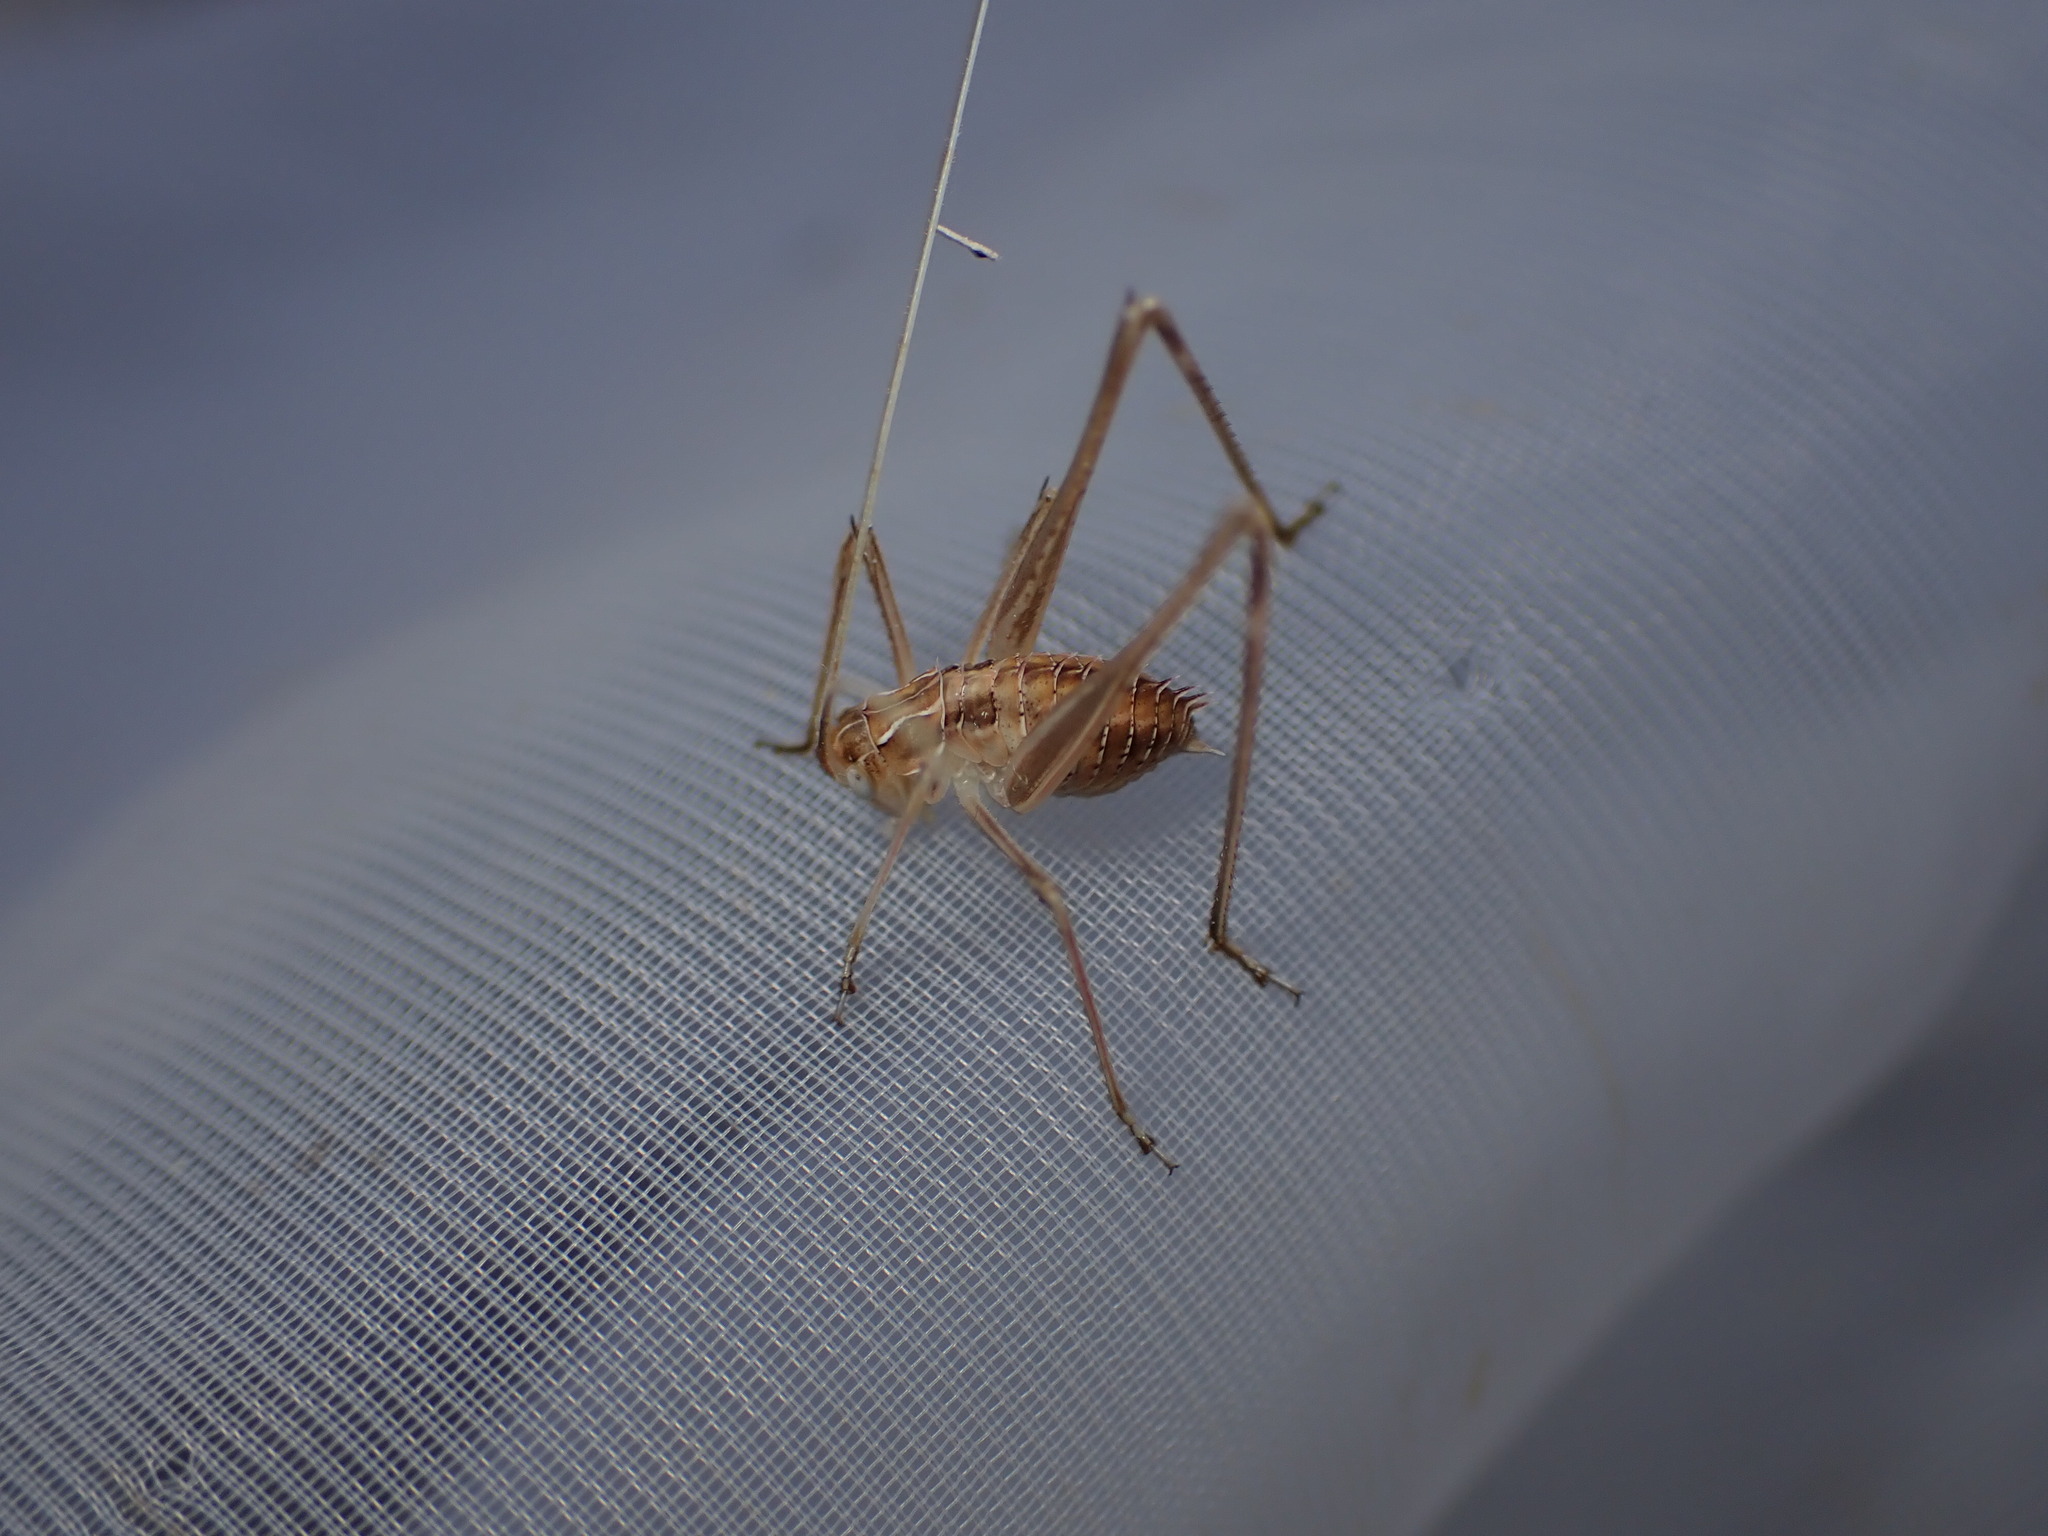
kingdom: Animalia
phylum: Arthropoda
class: Insecta
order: Orthoptera
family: Tettigoniidae
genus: Tylopsis
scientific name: Tylopsis lilifolia
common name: Lily bush-cricket
